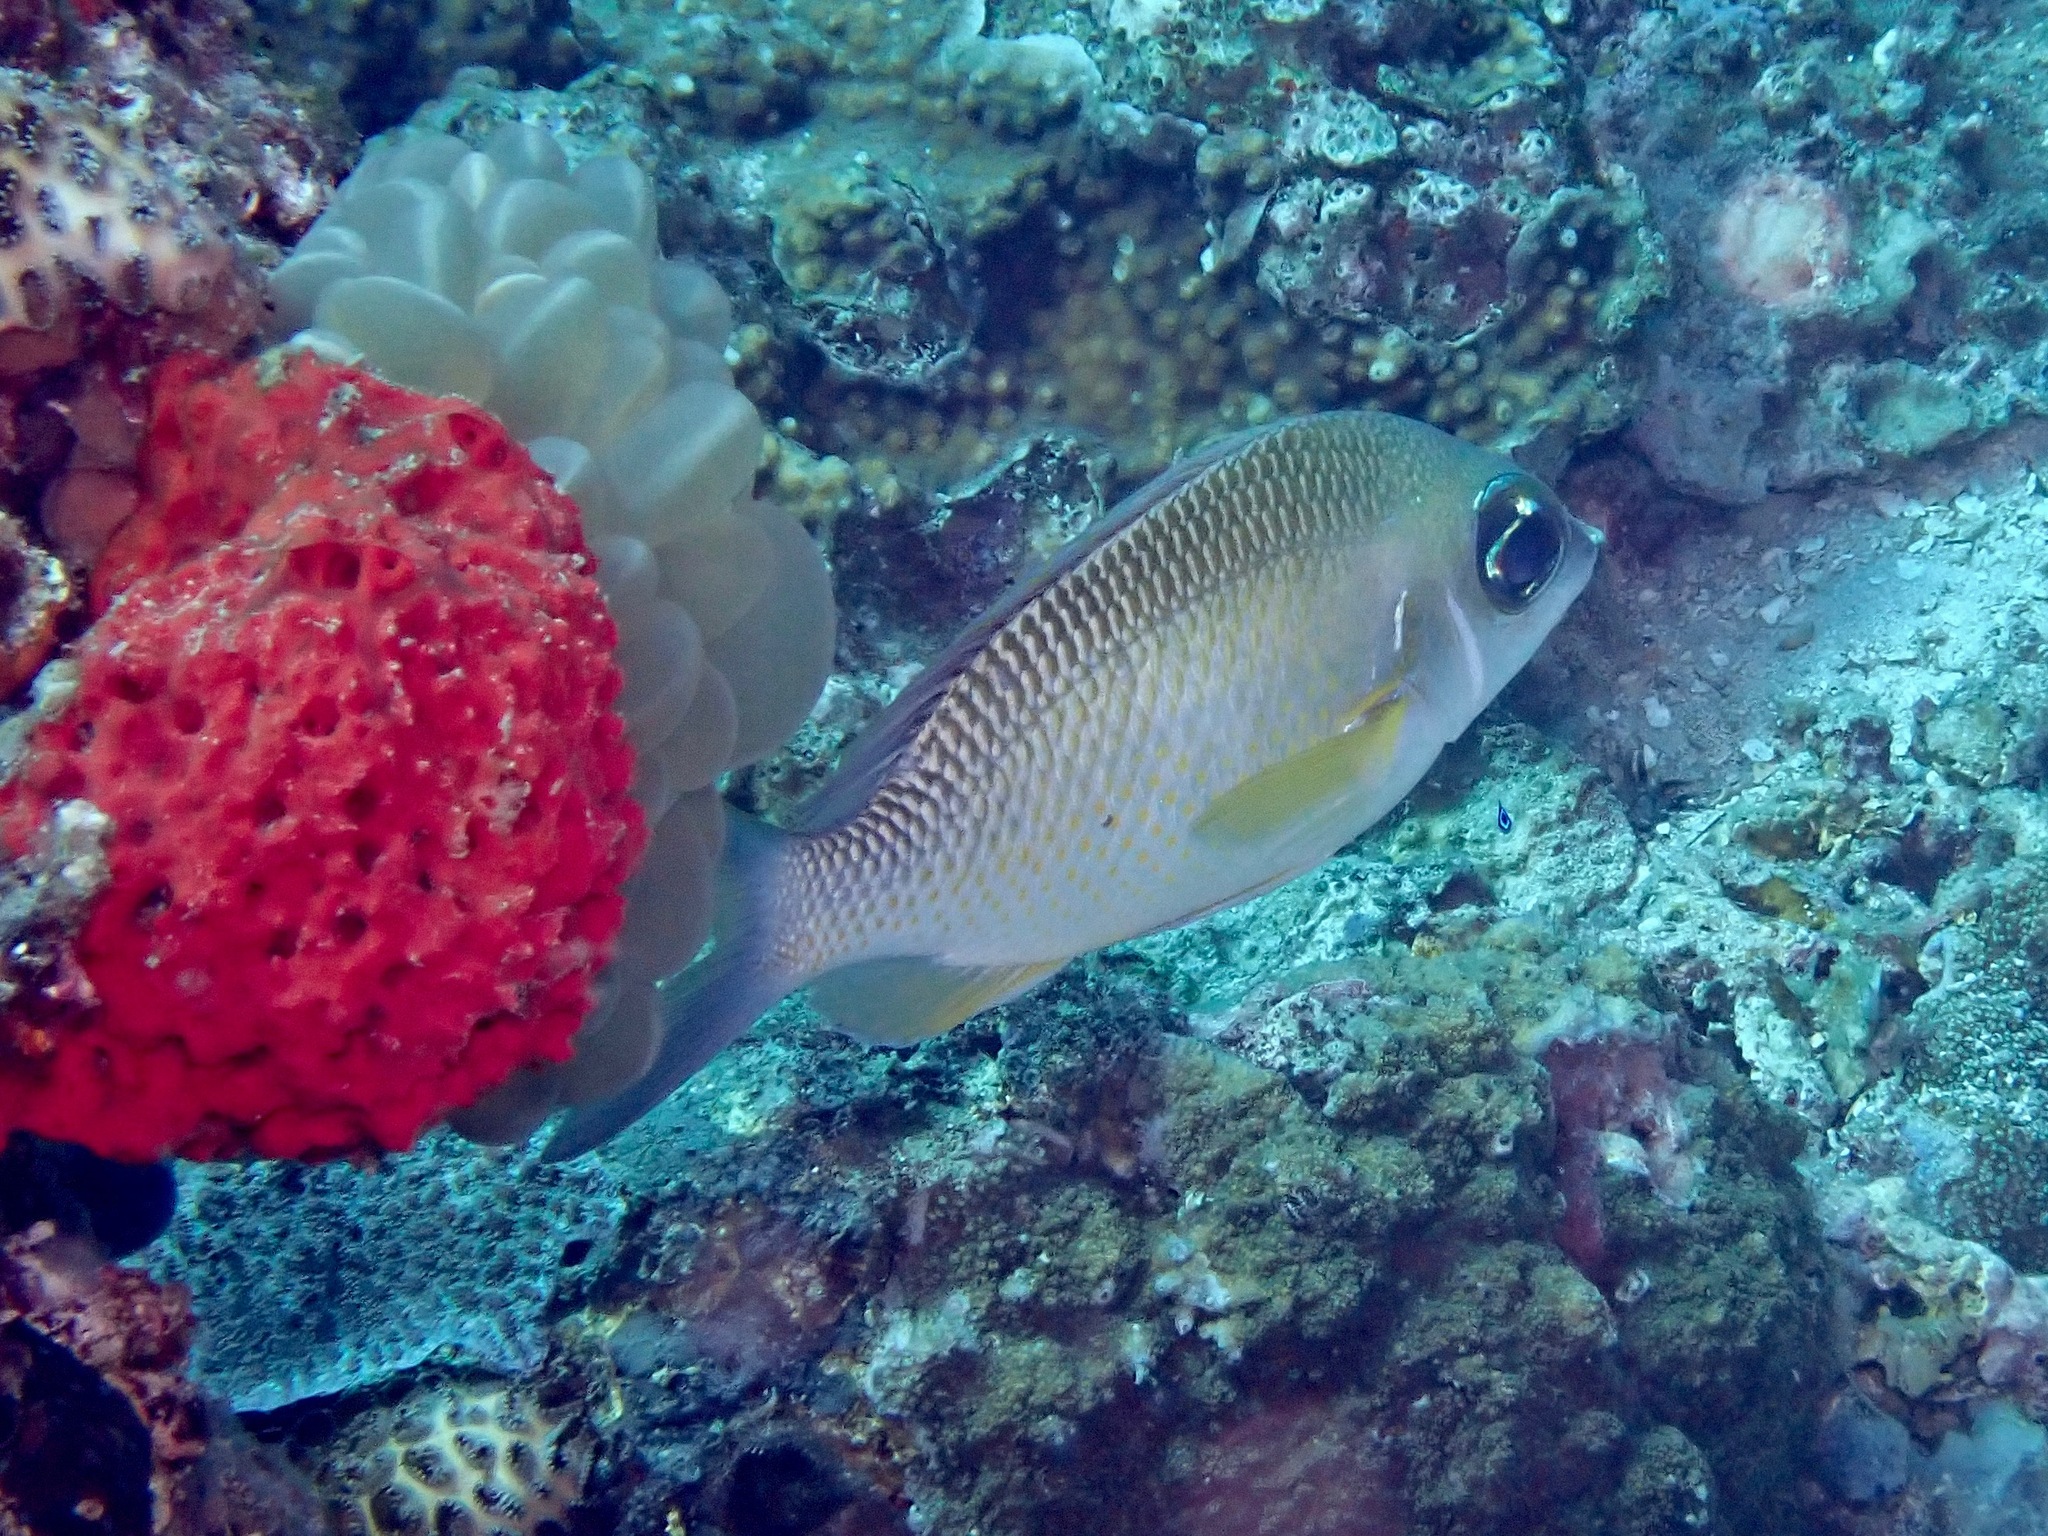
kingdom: Animalia
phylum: Chordata
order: Perciformes
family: Nemipteridae
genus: Scolopsis
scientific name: Scolopsis margaritifera
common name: Pearly monocle bream
